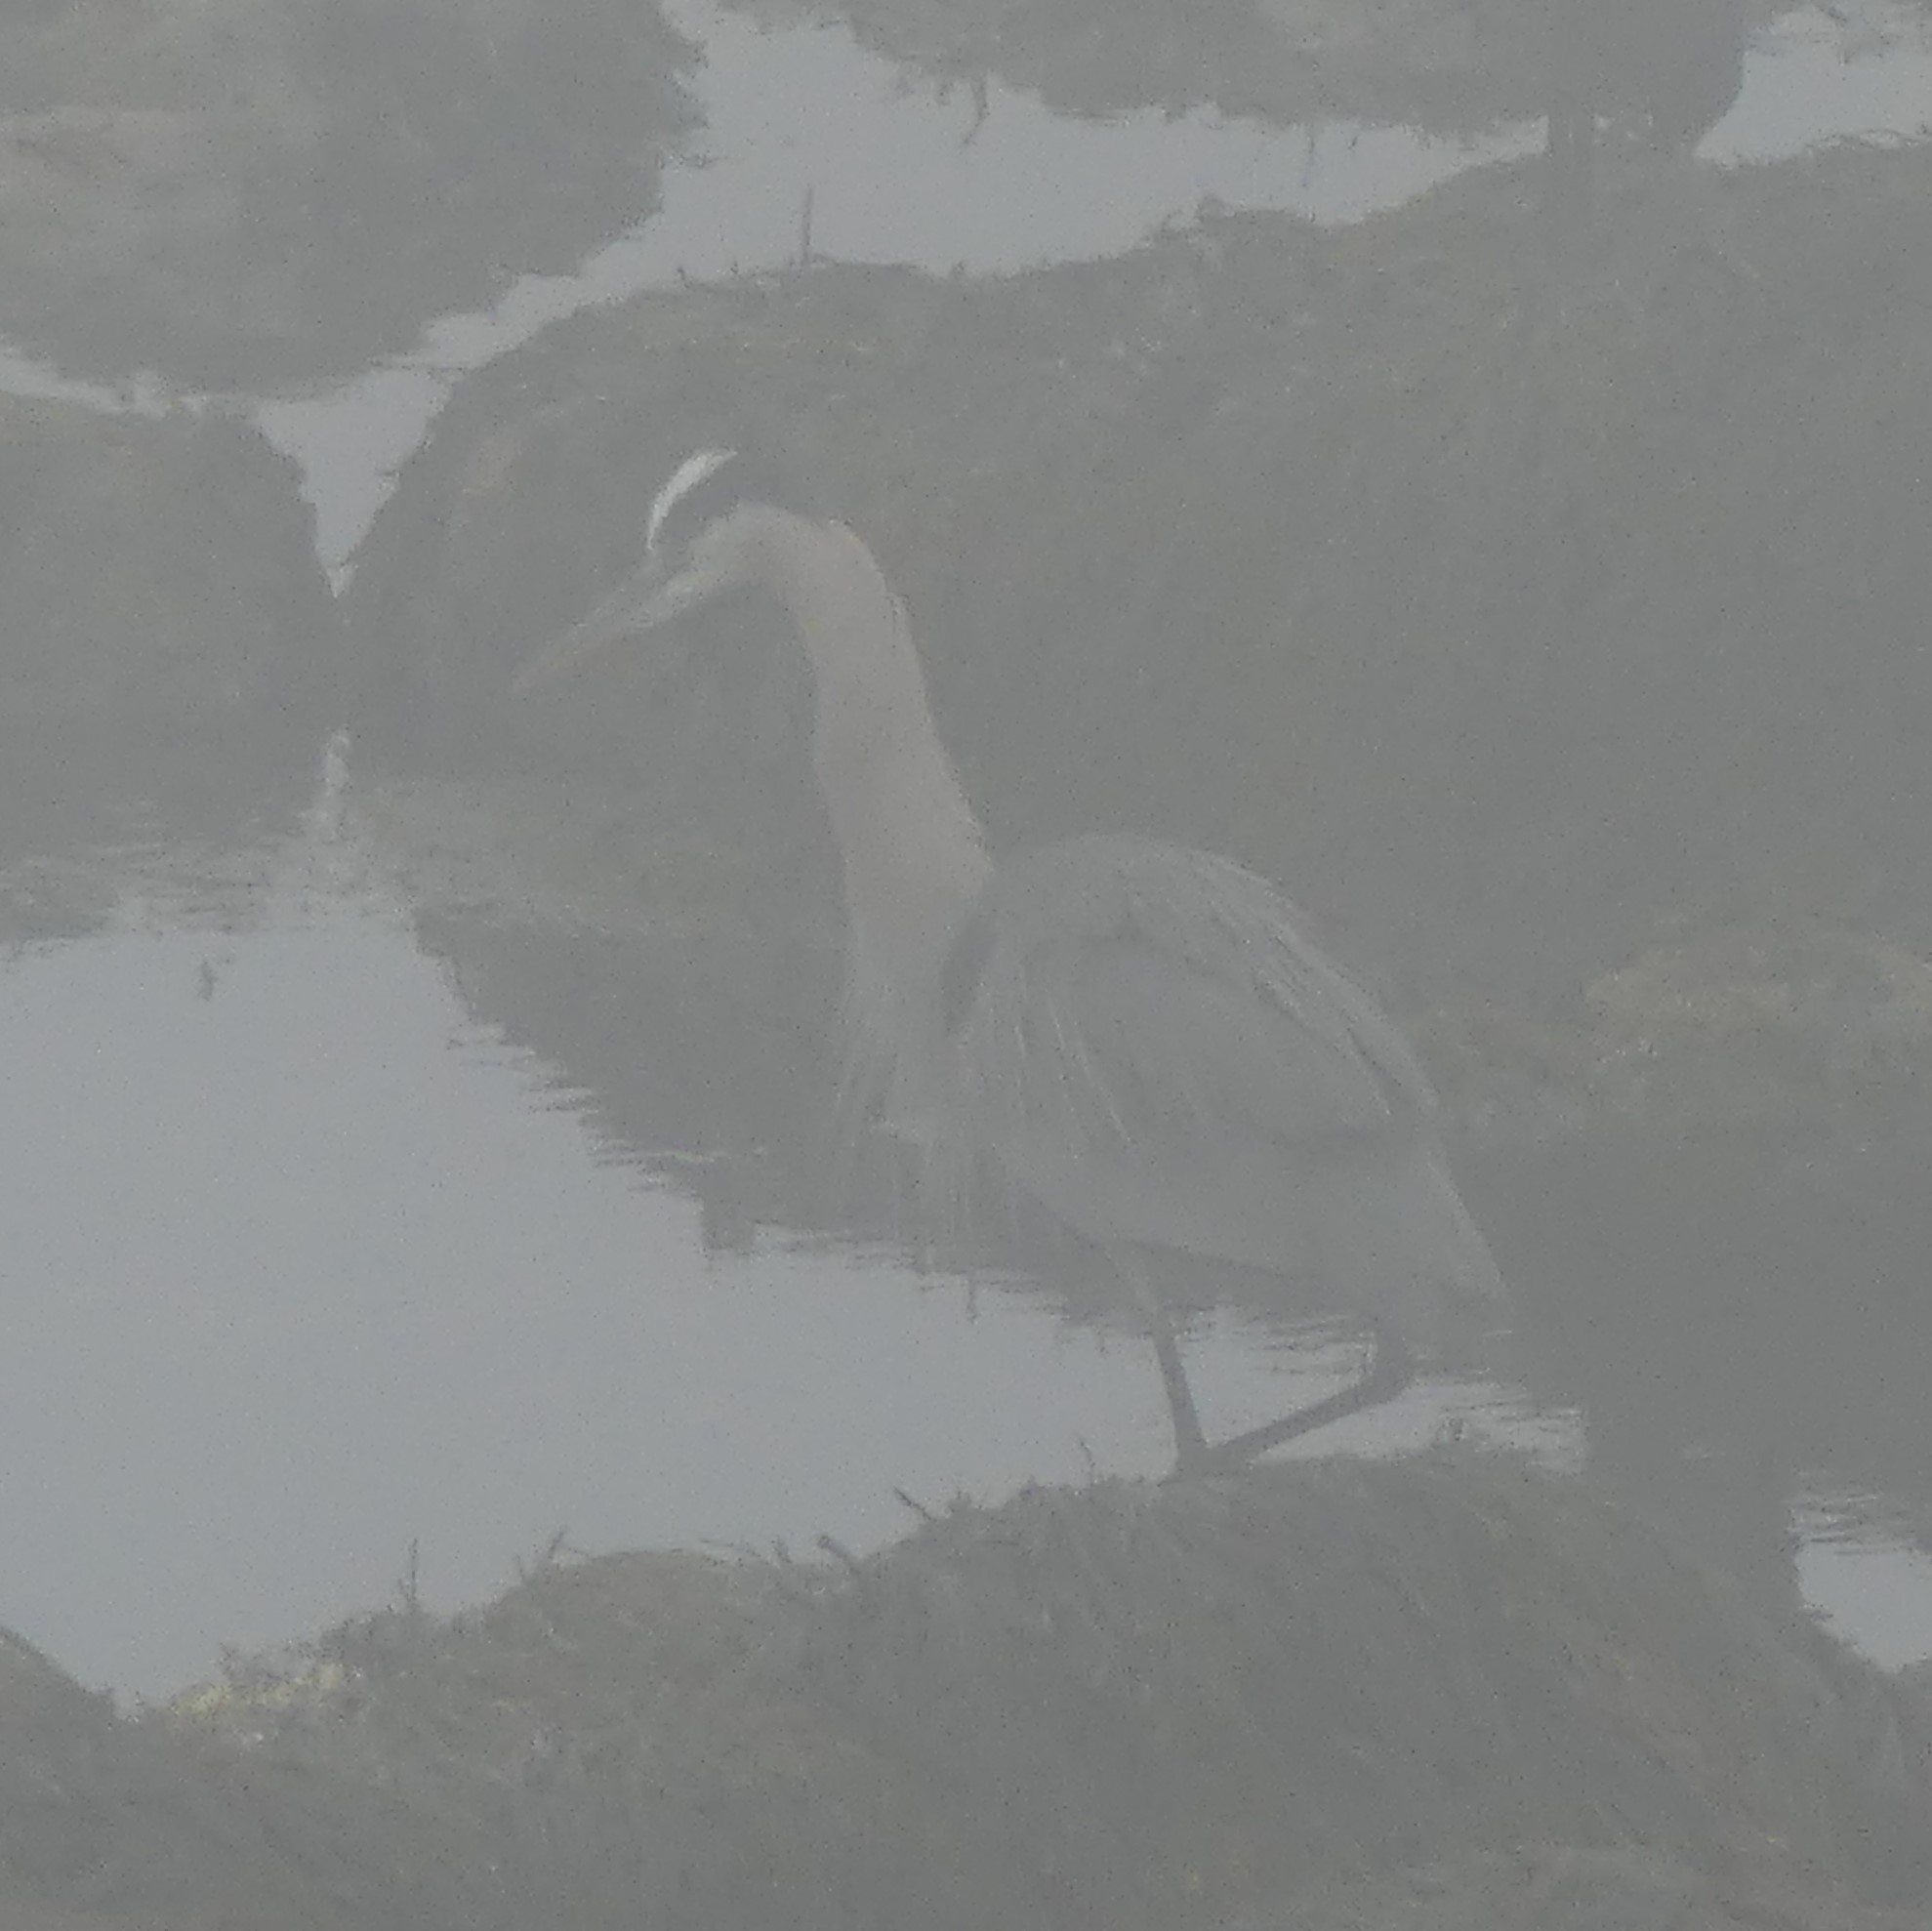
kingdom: Animalia
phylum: Chordata
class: Aves
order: Pelecaniformes
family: Ardeidae
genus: Ardea
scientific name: Ardea herodias
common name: Great blue heron
